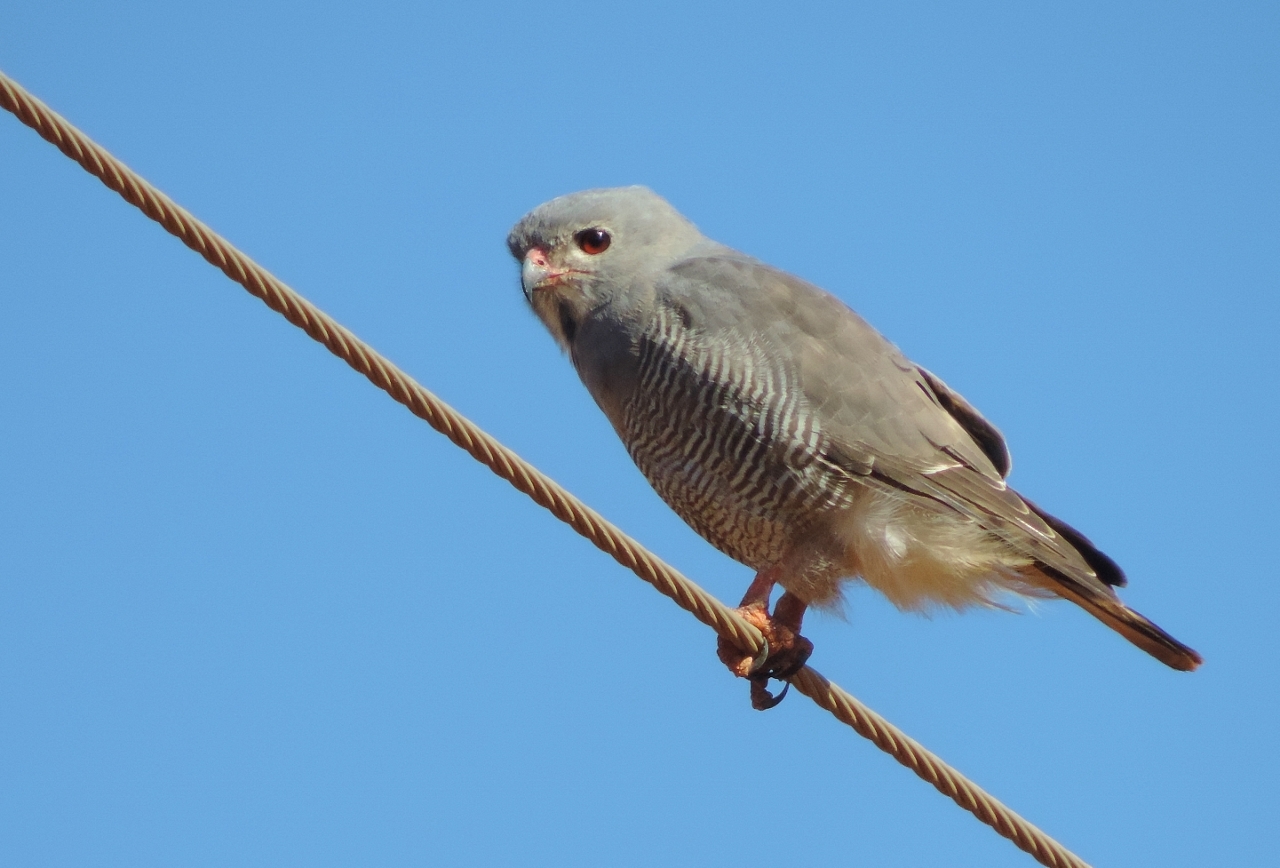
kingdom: Animalia
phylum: Chordata
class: Aves
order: Accipitriformes
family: Accipitridae
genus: Kaupifalco
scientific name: Kaupifalco monogrammicus
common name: Lizard buzzard
